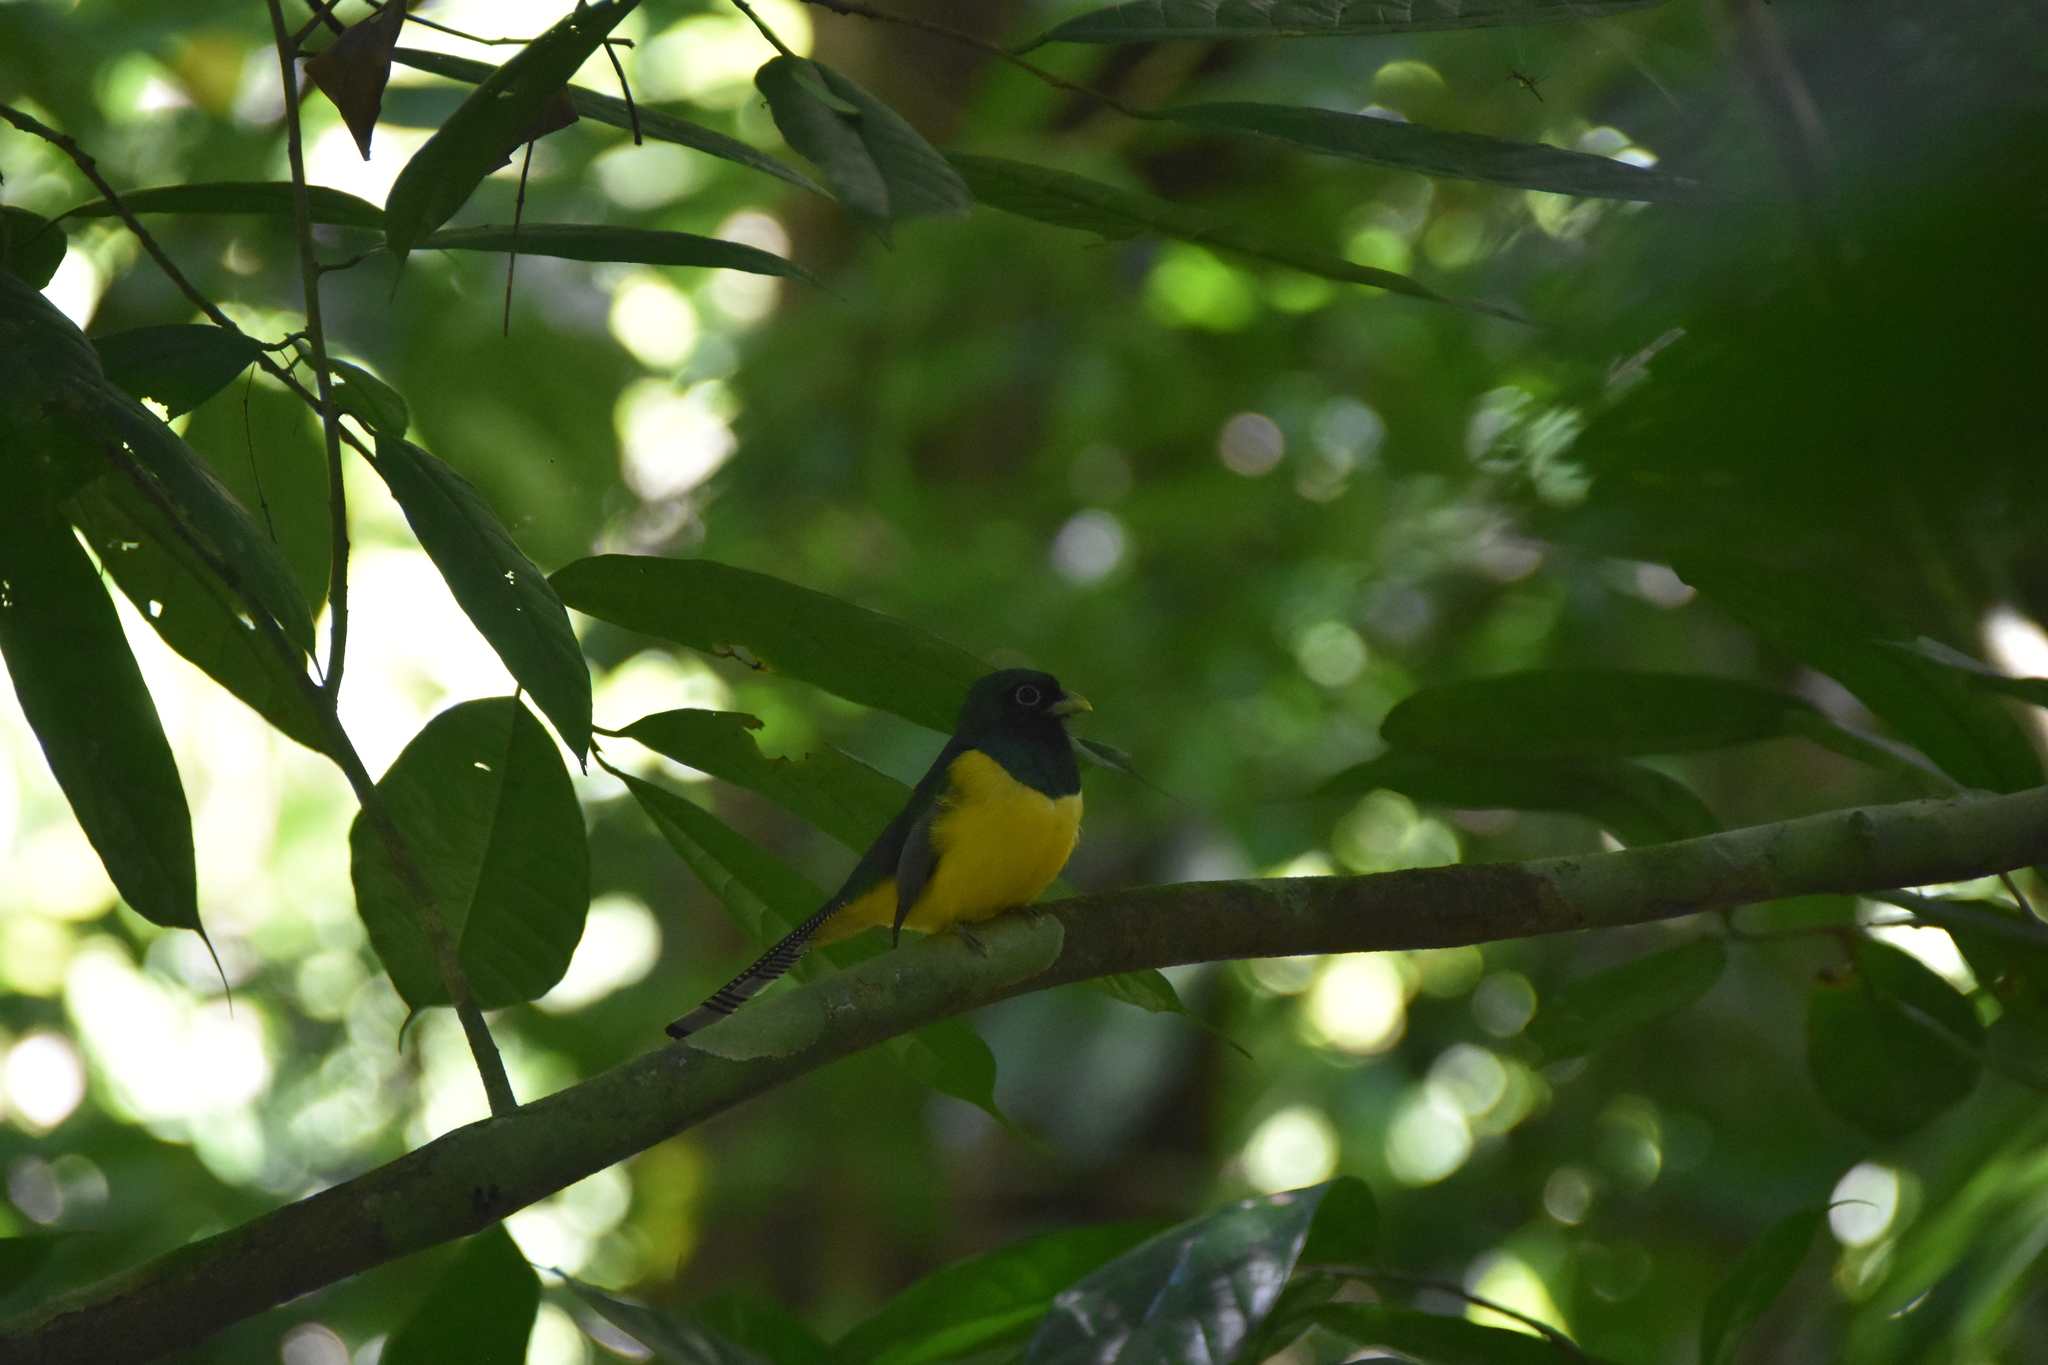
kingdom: Animalia
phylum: Chordata
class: Aves
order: Trogoniformes
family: Trogonidae
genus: Trogon
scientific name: Trogon rufus
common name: Black-throated trogon
